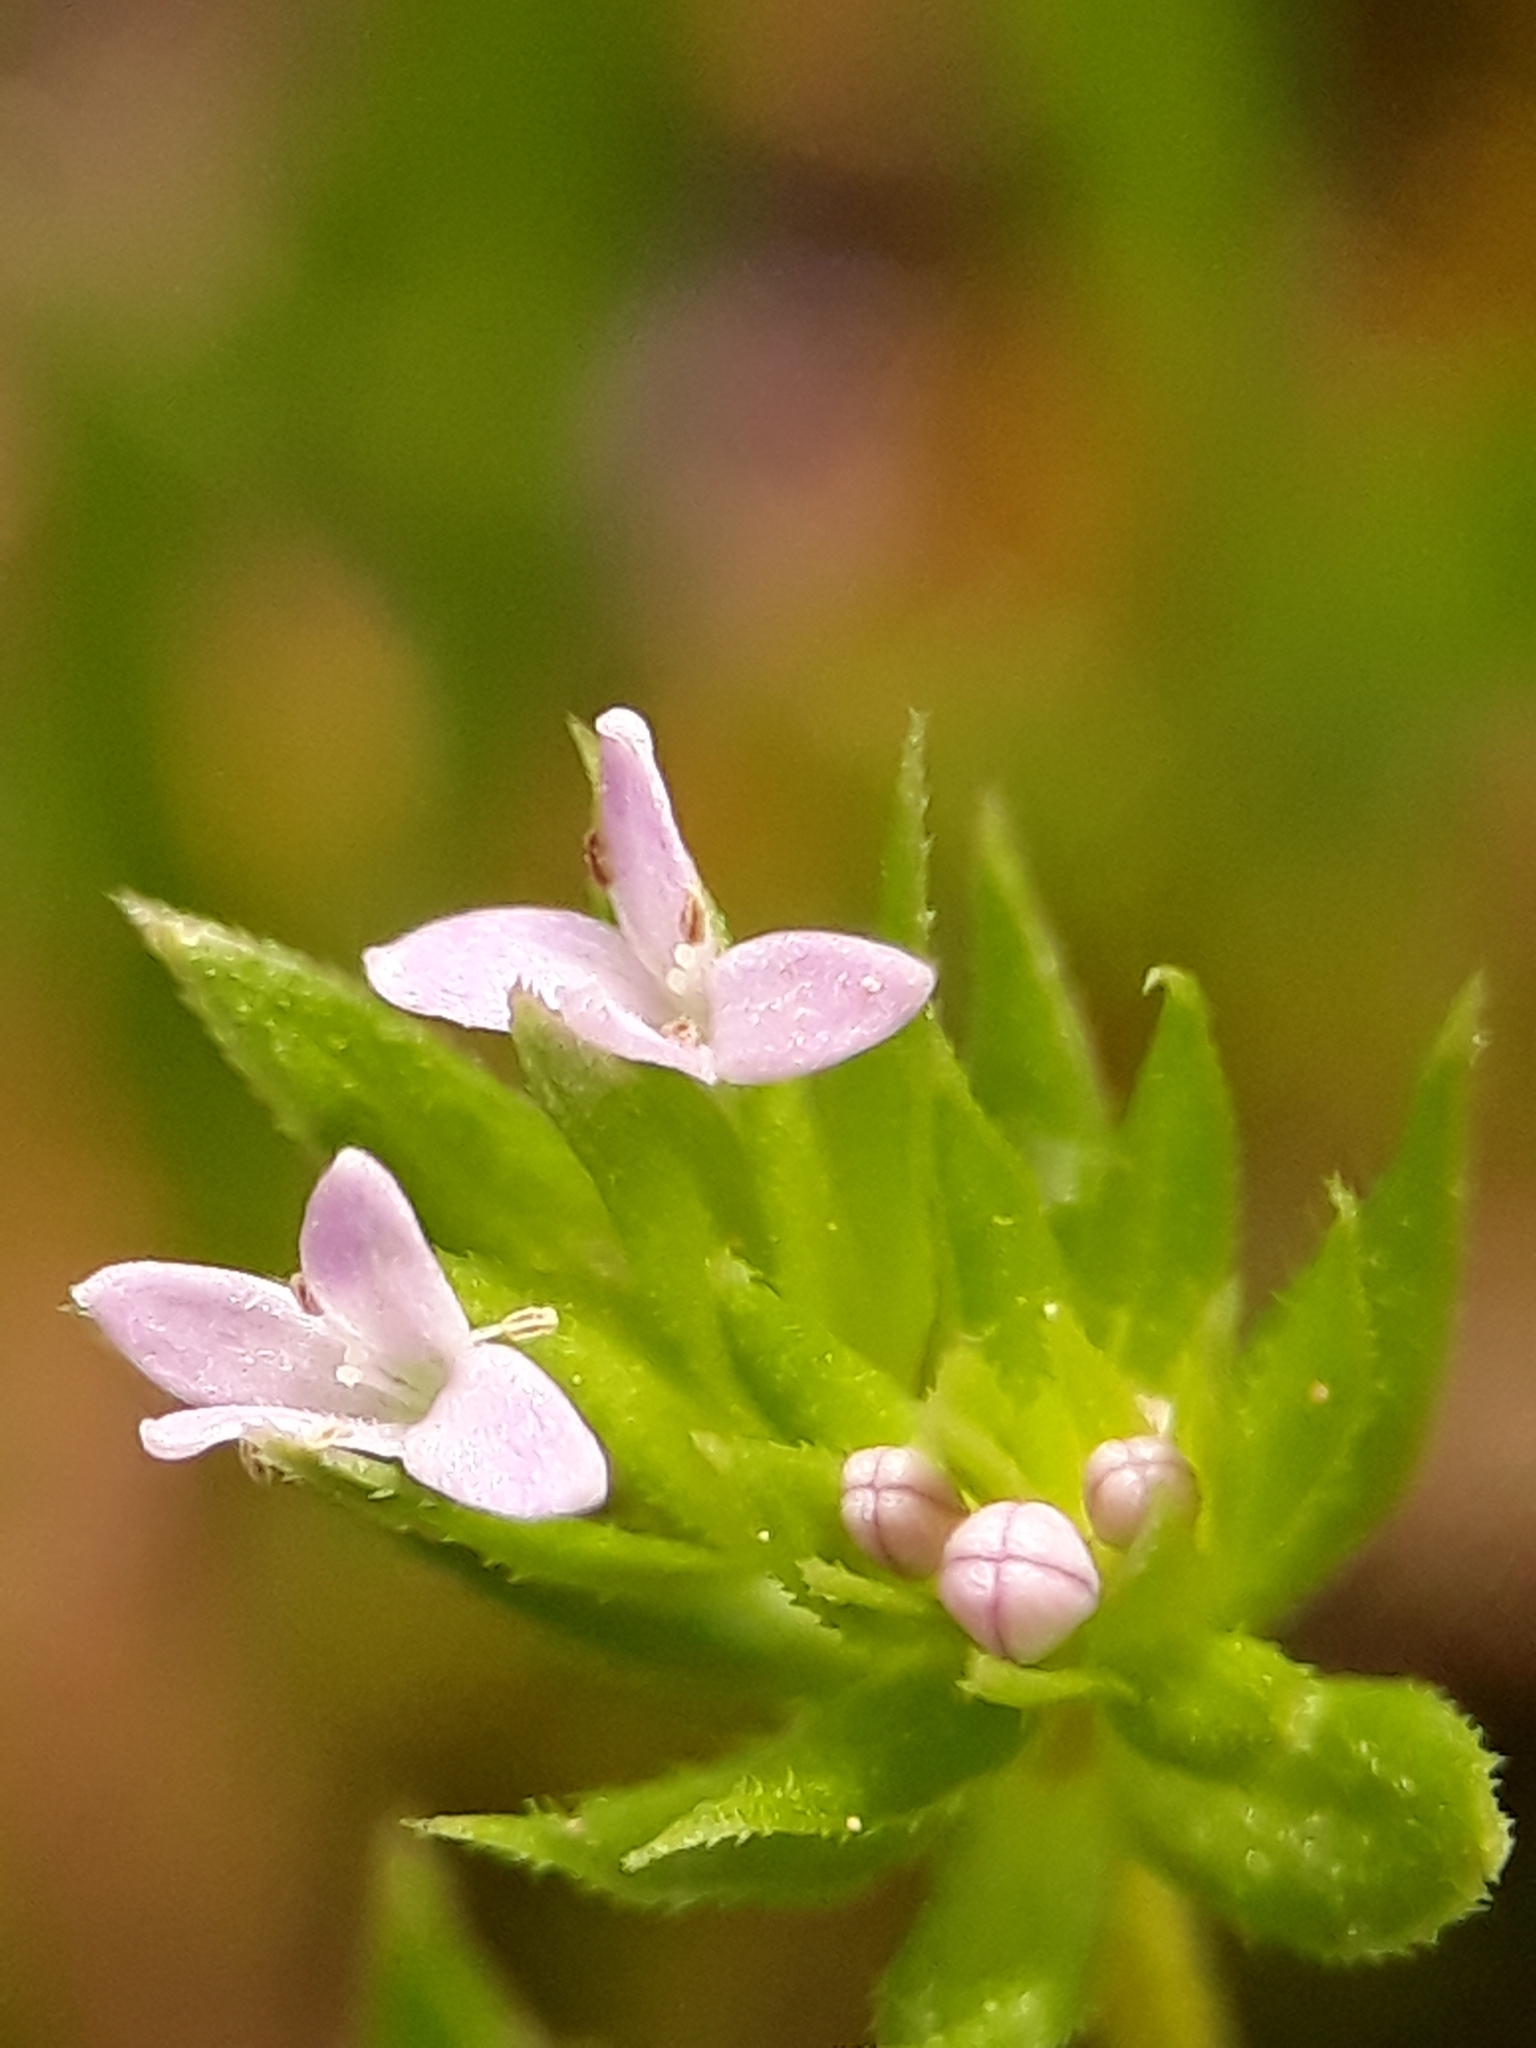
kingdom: Plantae
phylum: Tracheophyta
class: Magnoliopsida
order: Gentianales
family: Rubiaceae
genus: Sherardia
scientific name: Sherardia arvensis
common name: Field madder
